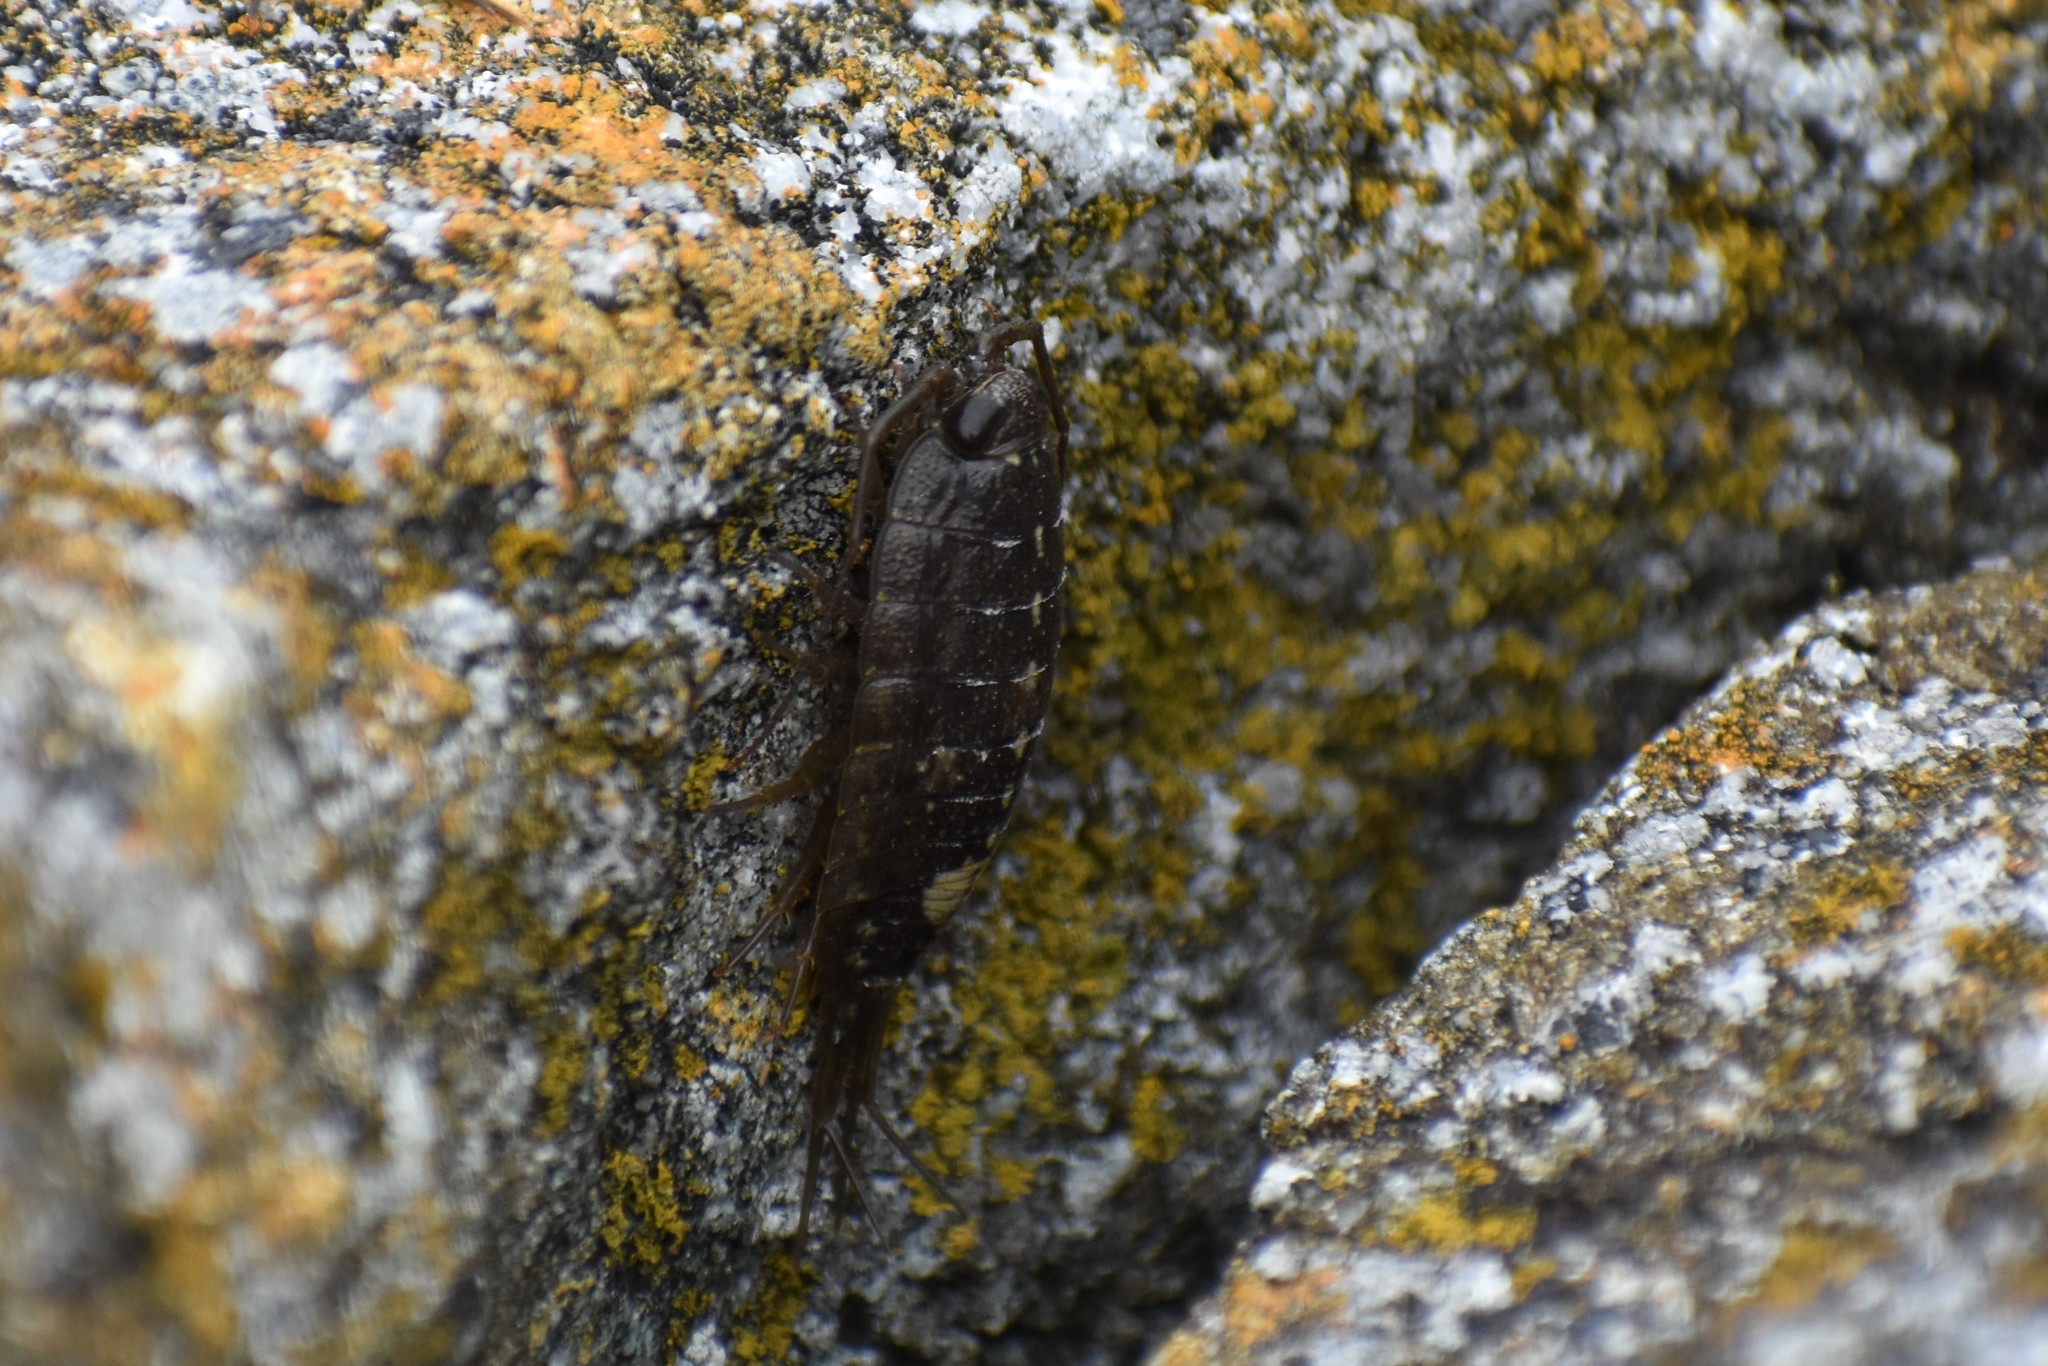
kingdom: Animalia
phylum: Arthropoda
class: Malacostraca
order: Isopoda
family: Ligiidae
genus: Ligia
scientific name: Ligia occidentalis
